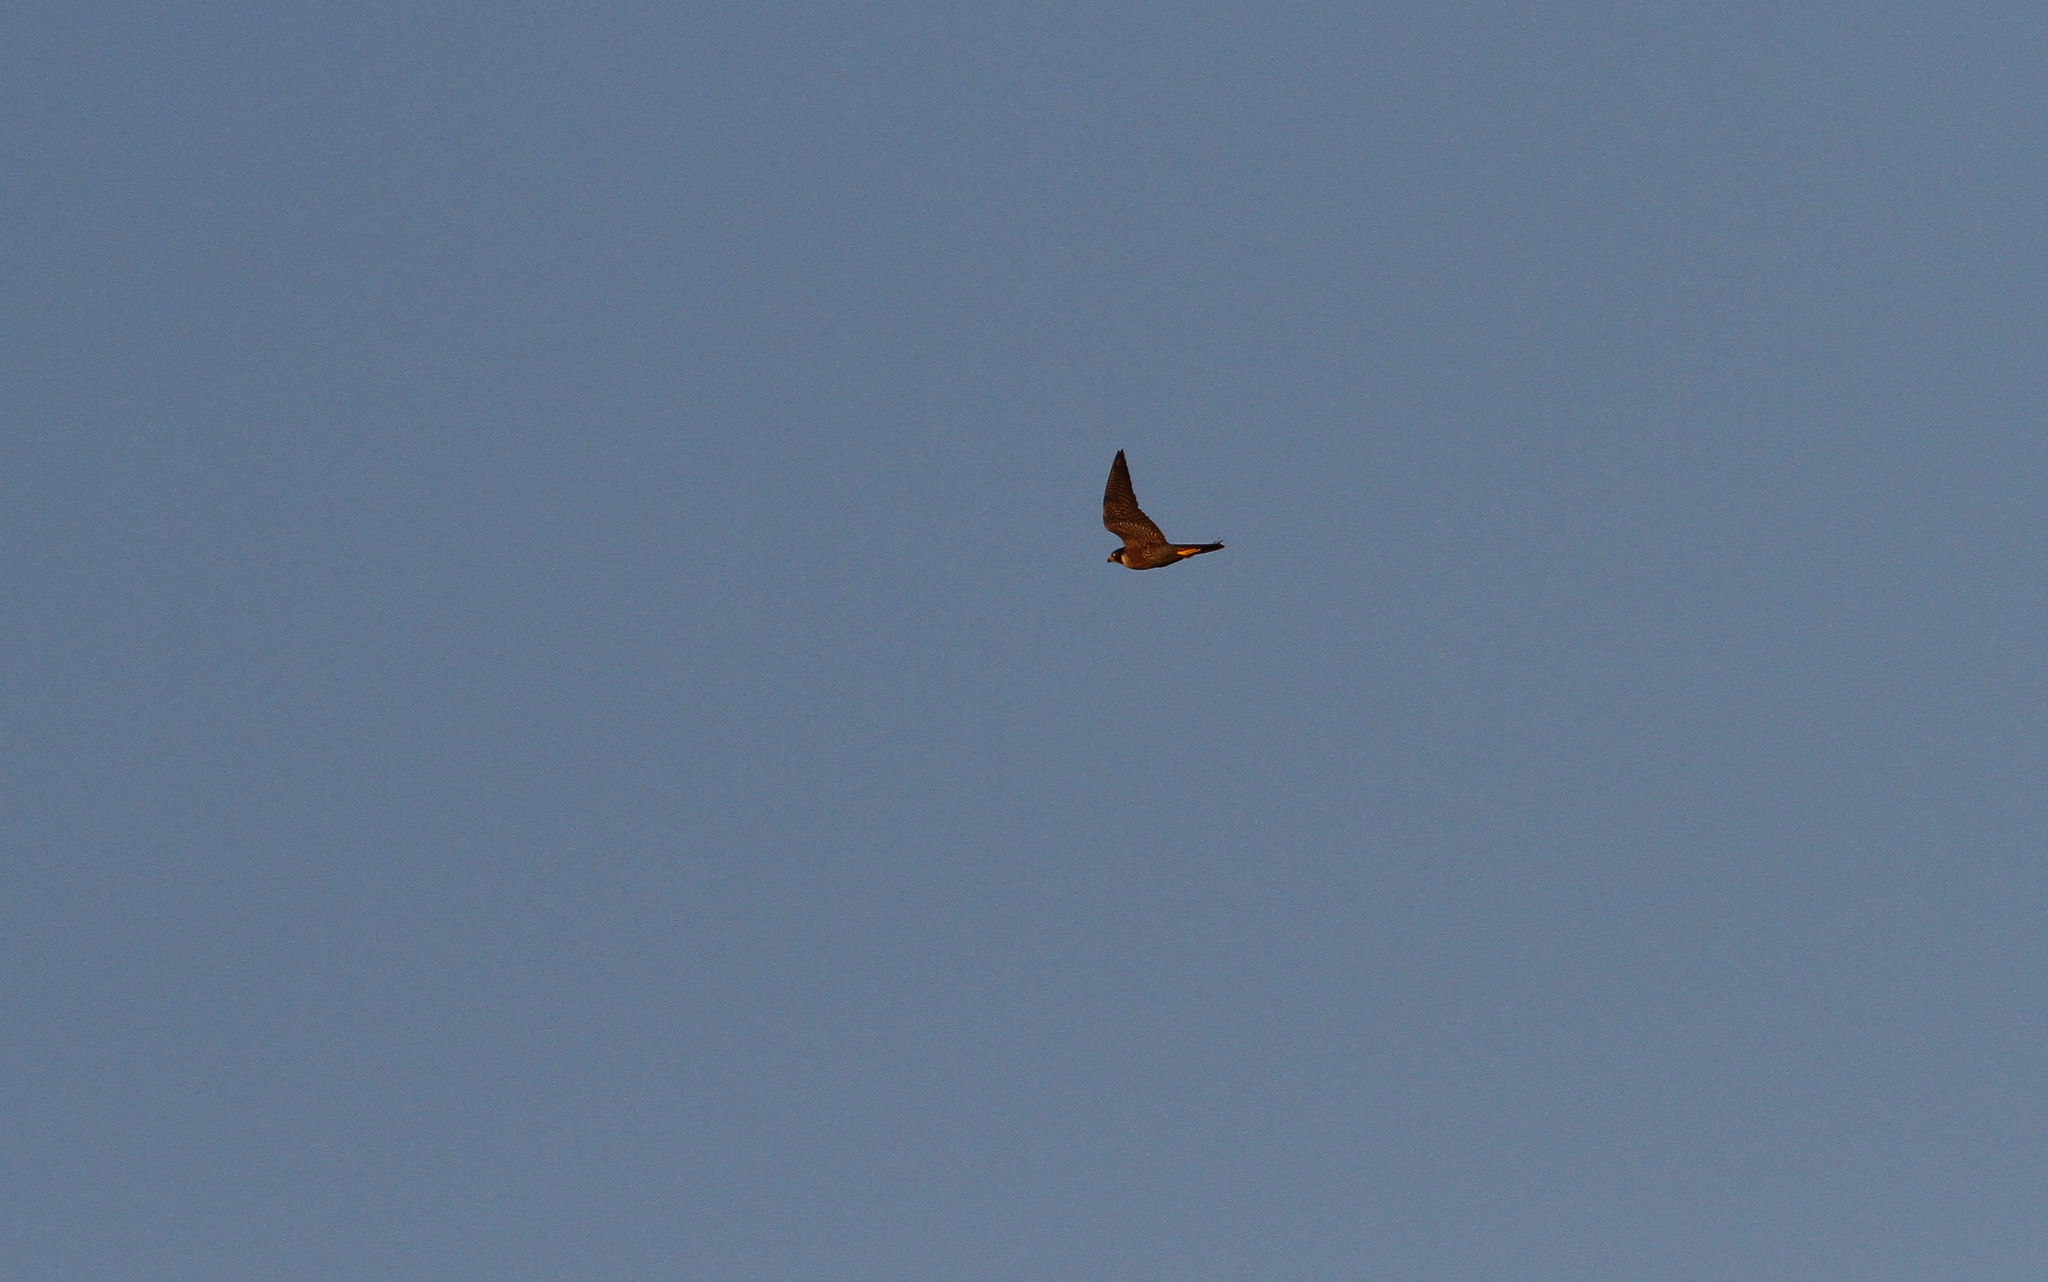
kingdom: Animalia
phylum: Chordata
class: Aves
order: Falconiformes
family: Falconidae
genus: Falco
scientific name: Falco peregrinus
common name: Peregrine falcon
